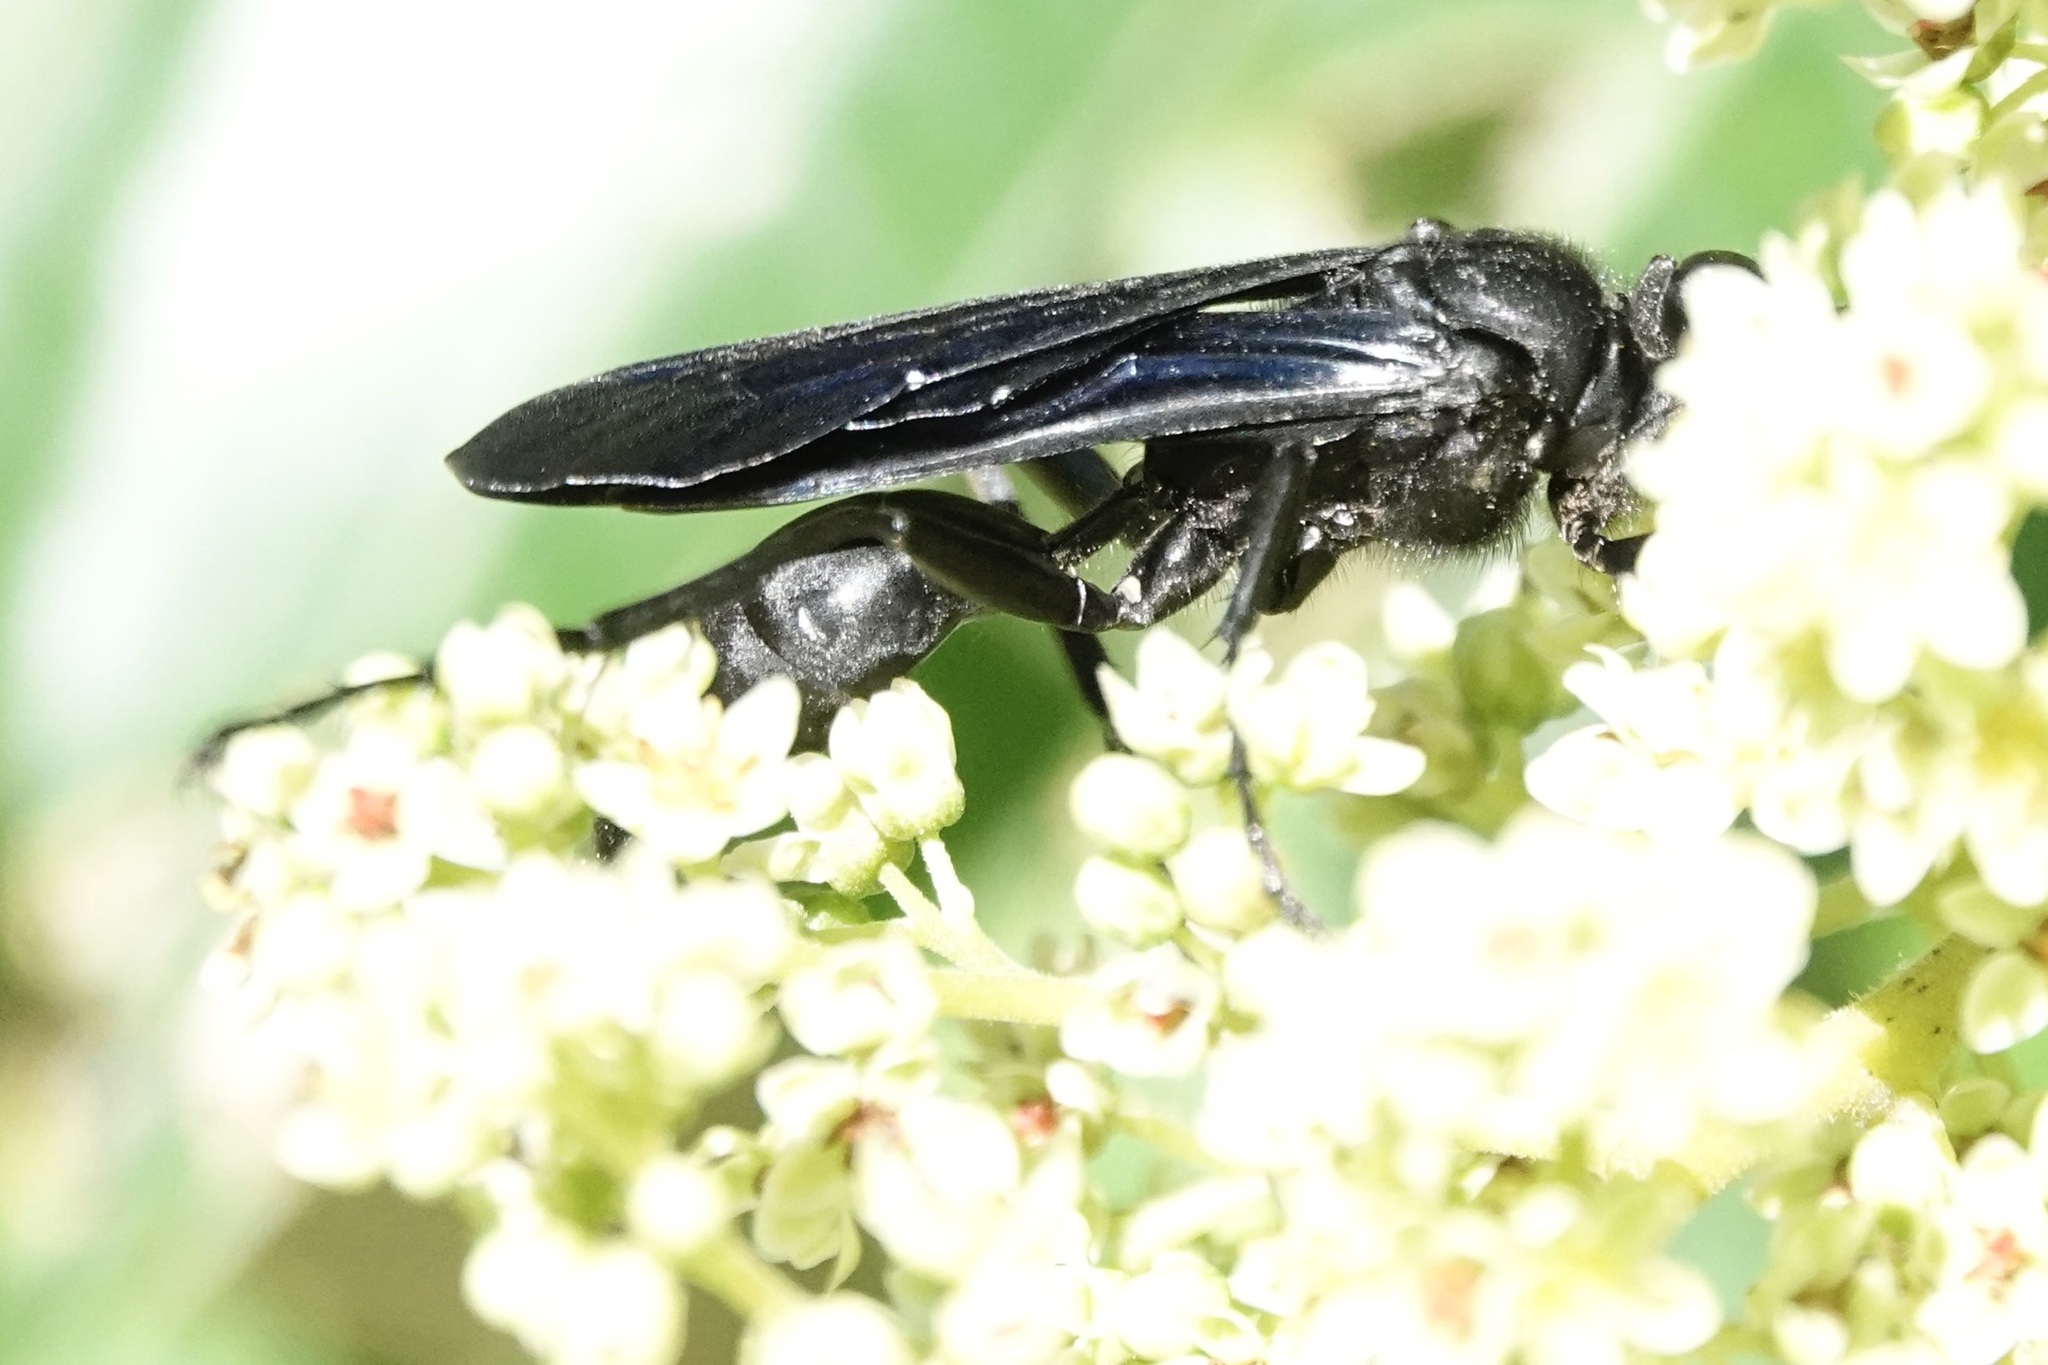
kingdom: Animalia
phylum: Arthropoda
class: Insecta
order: Hymenoptera
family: Sphecidae
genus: Sphex
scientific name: Sphex pensylvanicus
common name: Great black digger wasp
